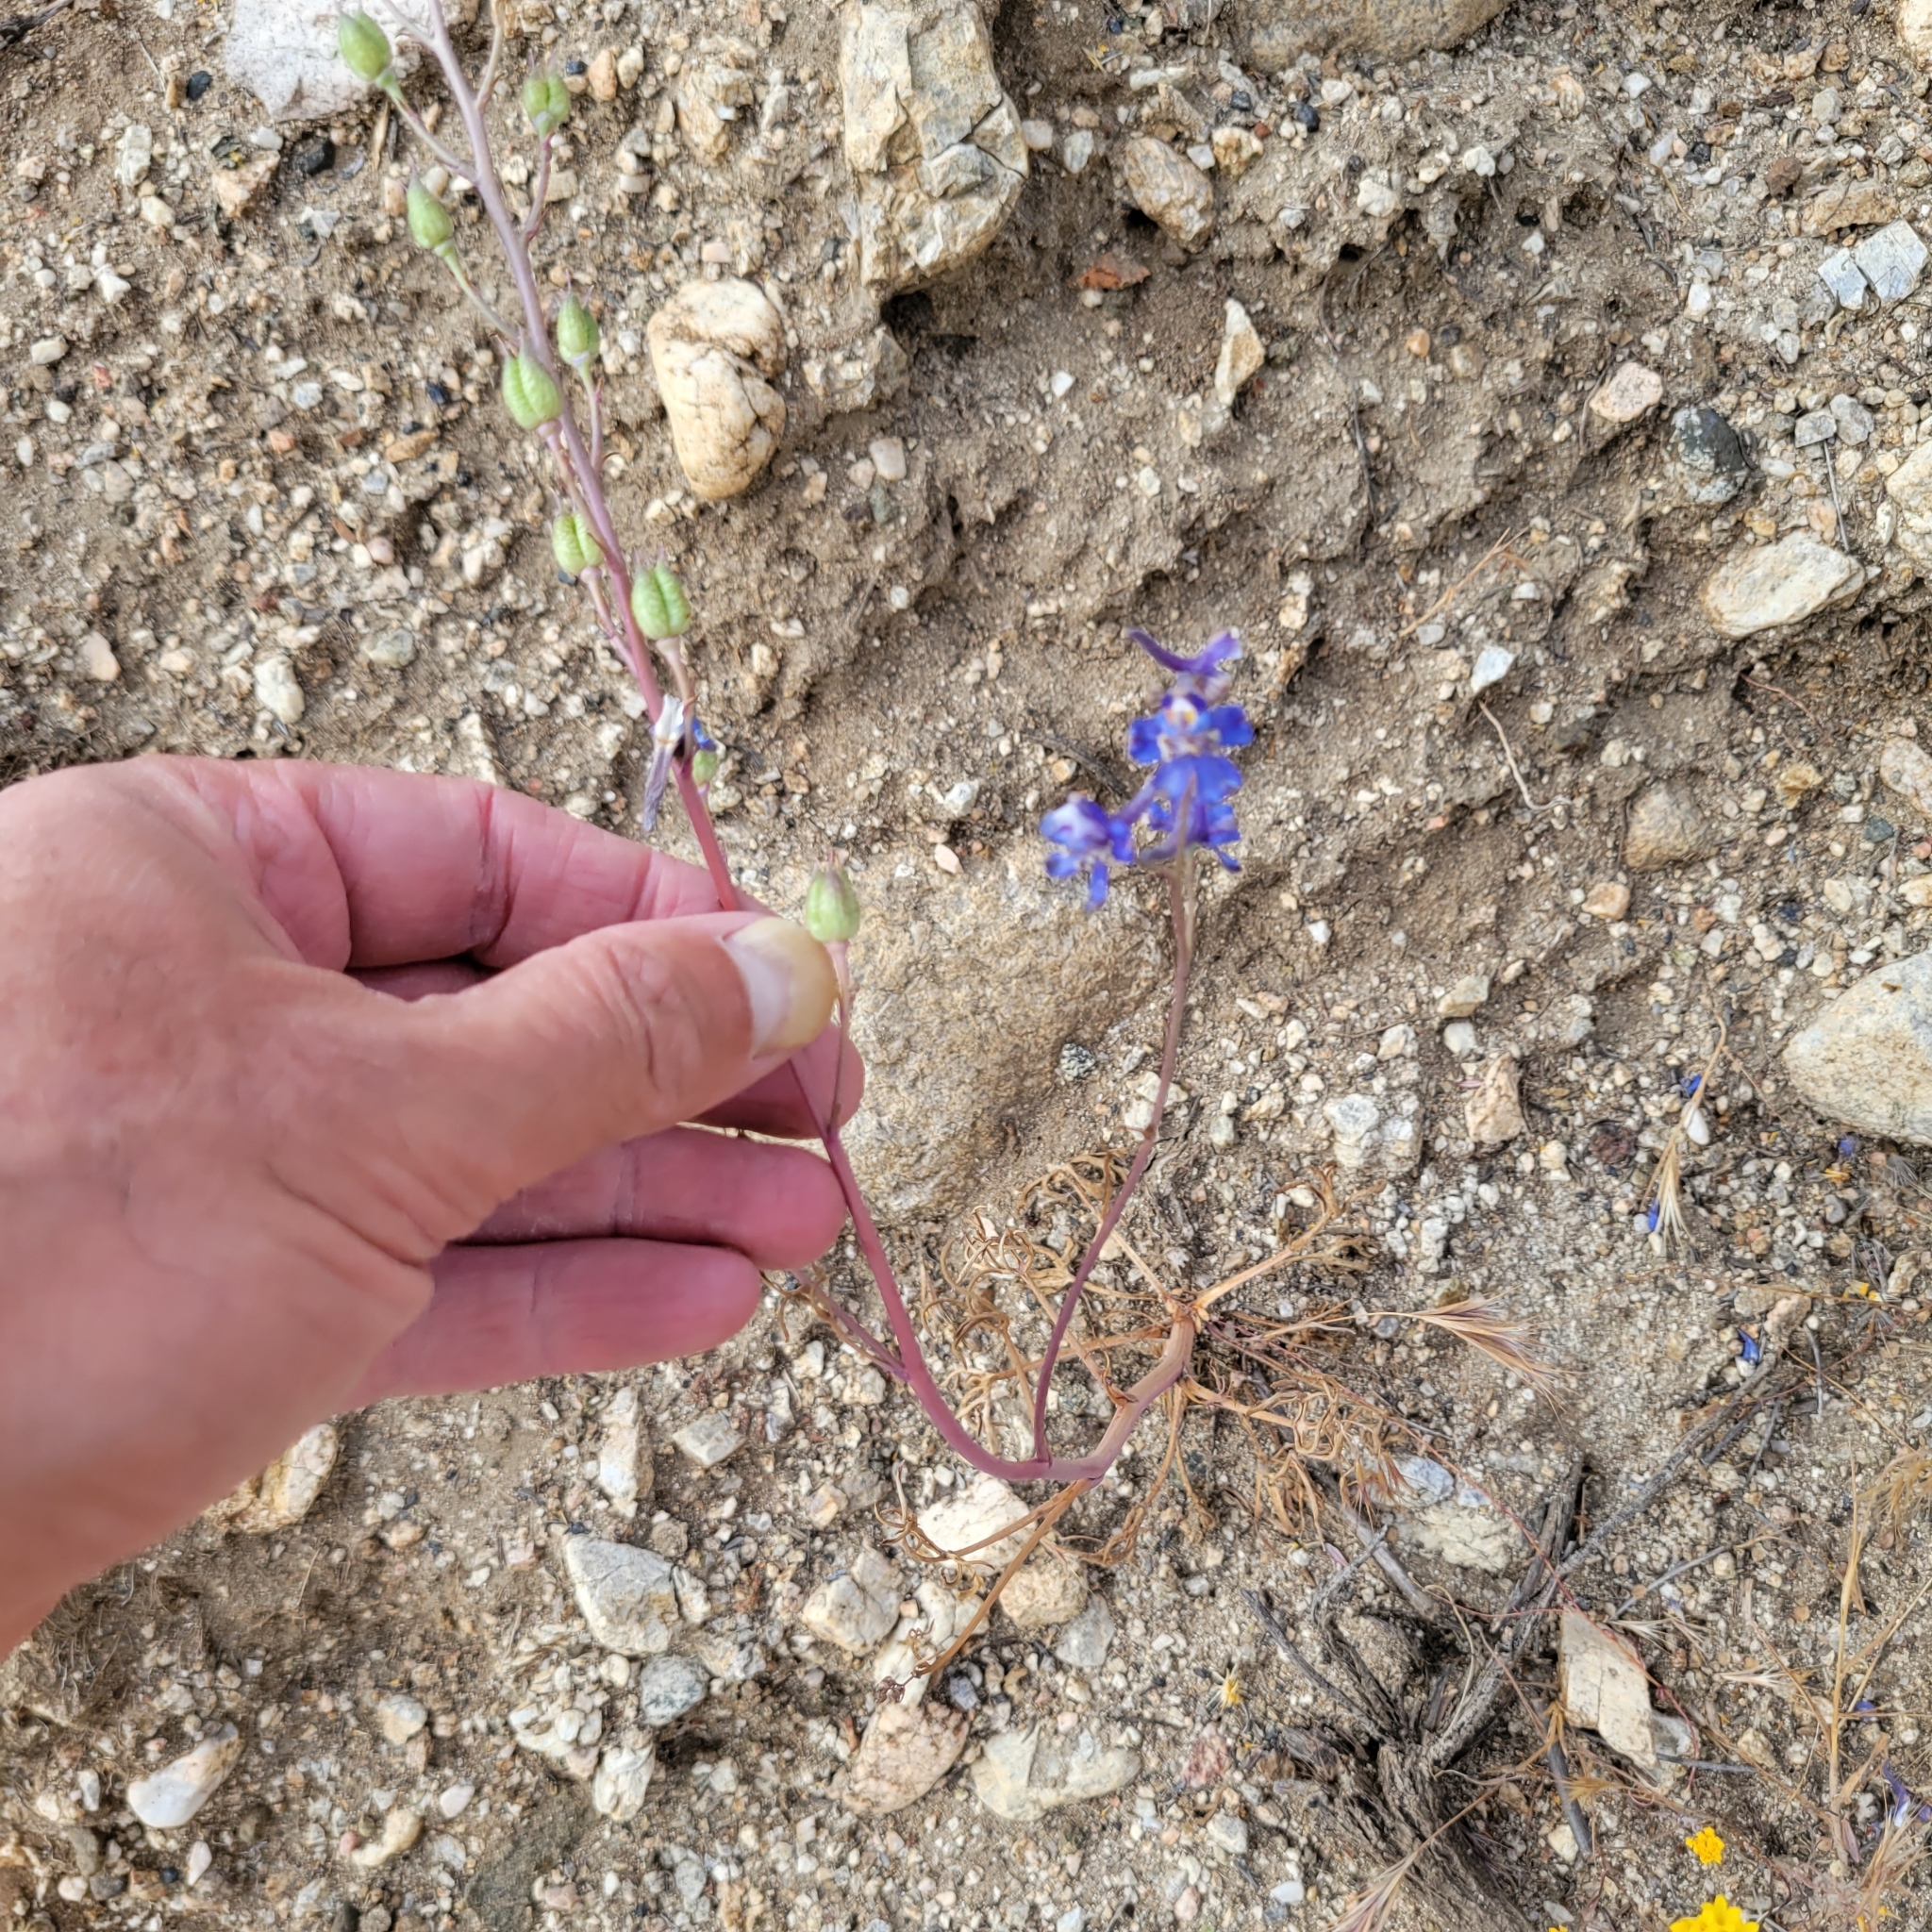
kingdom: Plantae
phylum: Tracheophyta
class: Magnoliopsida
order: Ranunculales
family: Ranunculaceae
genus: Delphinium
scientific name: Delphinium parryi
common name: Parry's larkspur
